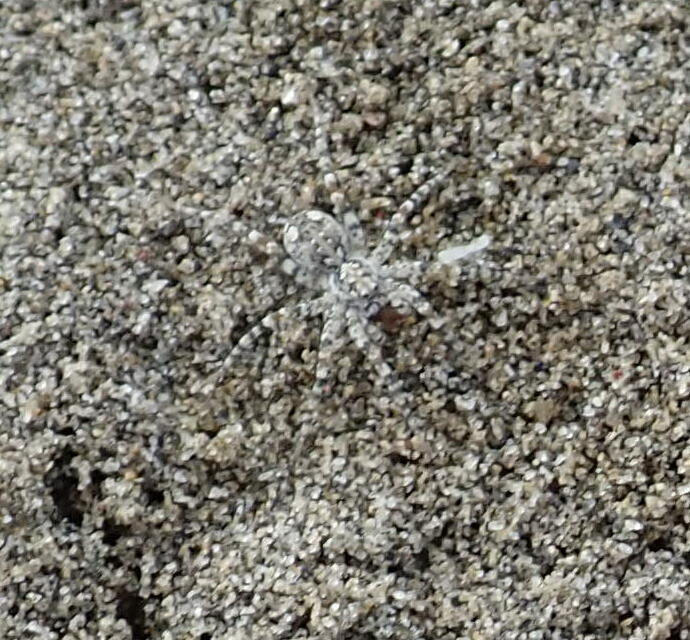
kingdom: Animalia
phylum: Arthropoda
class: Arachnida
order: Araneae
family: Lycosidae
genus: Anoteropsis
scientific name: Anoteropsis litoralis
